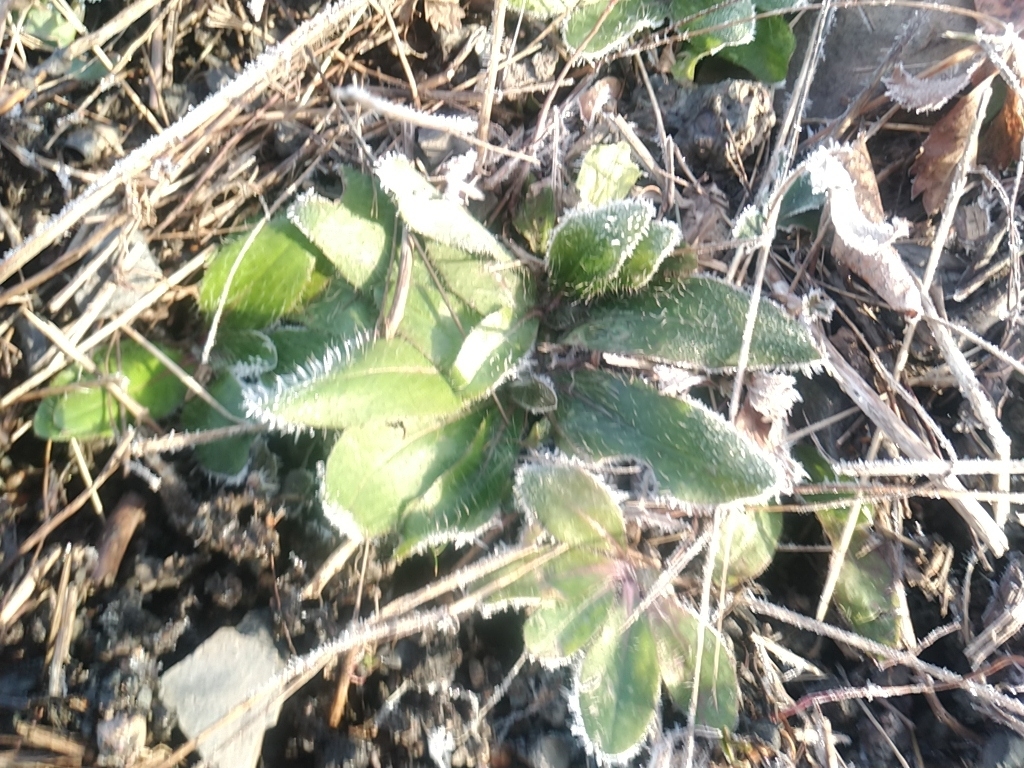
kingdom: Plantae
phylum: Tracheophyta
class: Magnoliopsida
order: Asterales
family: Asteraceae
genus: Pilosella
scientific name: Pilosella officinarum
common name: Mouse-ear hawkweed
